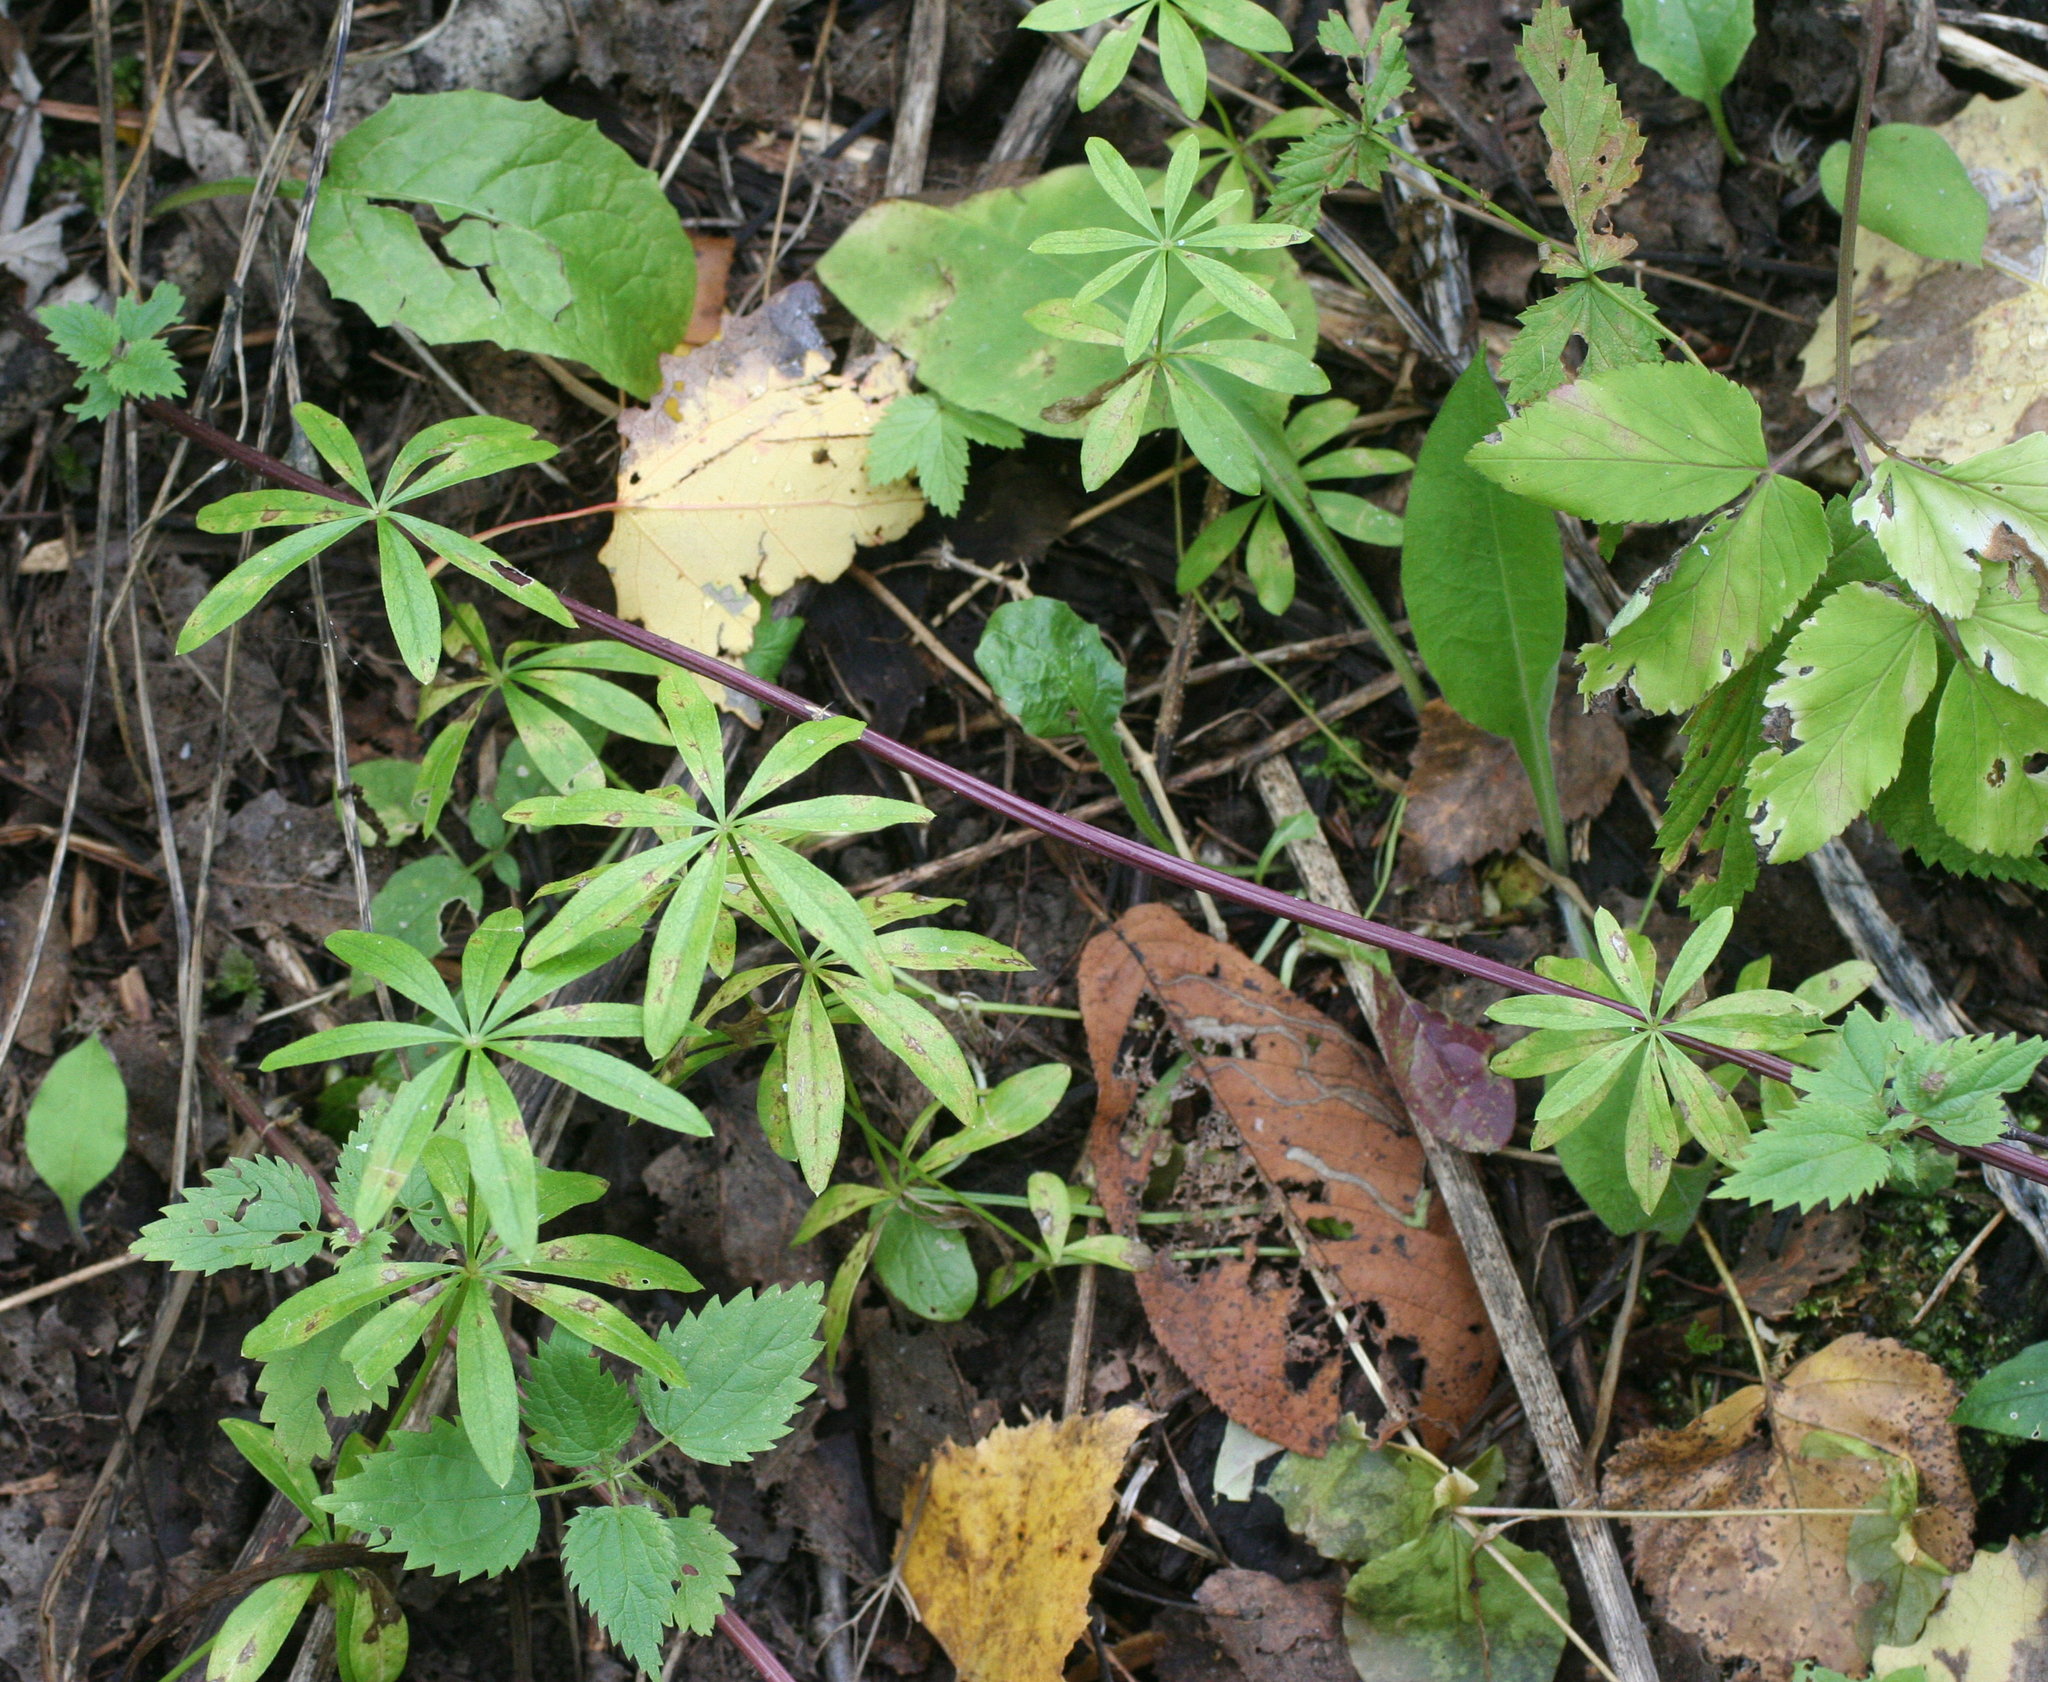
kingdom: Plantae
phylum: Tracheophyta
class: Magnoliopsida
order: Gentianales
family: Rubiaceae
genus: Galium
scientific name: Galium odoratum
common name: Sweet woodruff
